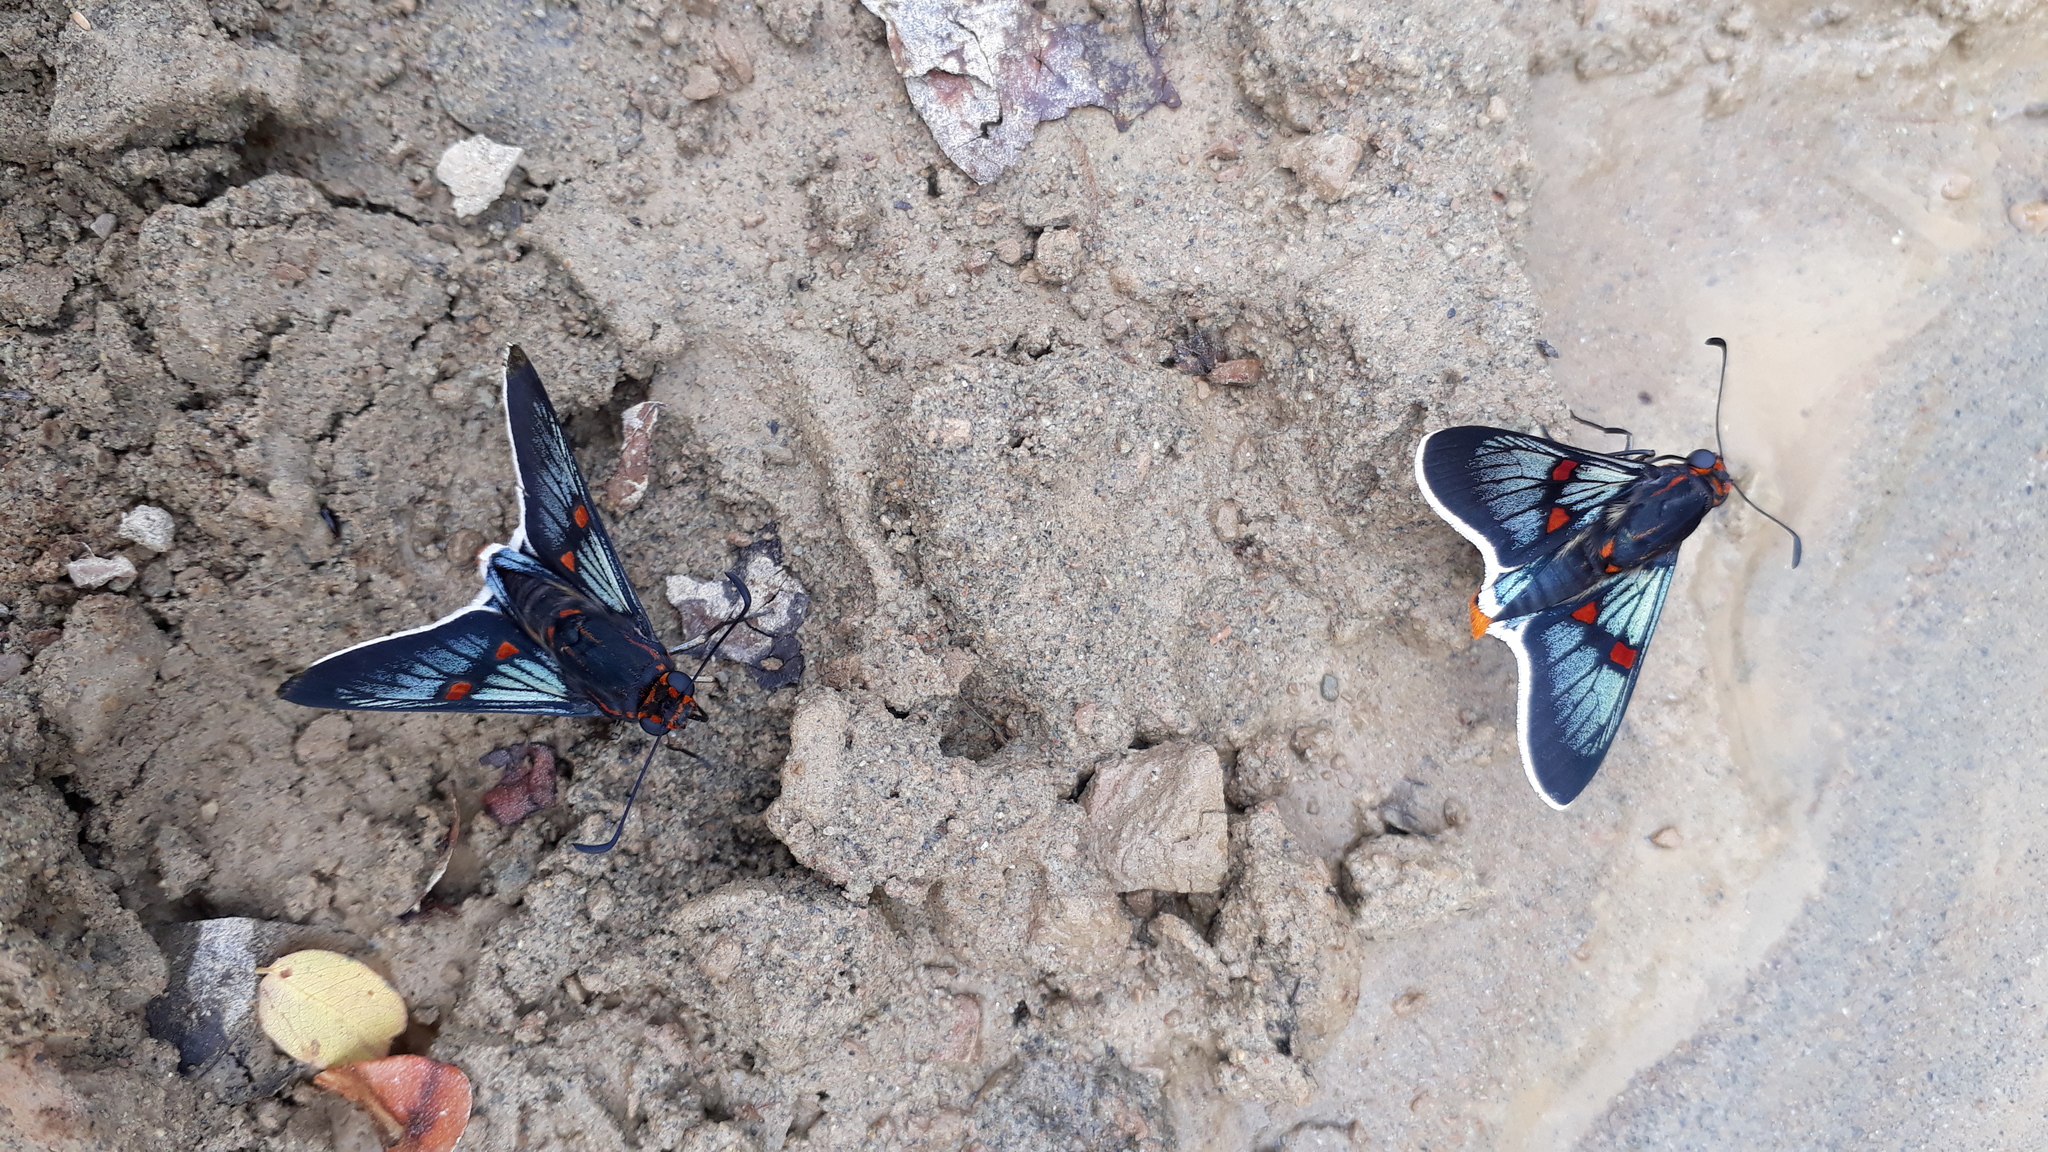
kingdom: Animalia
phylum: Arthropoda
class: Insecta
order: Lepidoptera
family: Hesperiidae
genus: Mimoniades
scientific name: Mimoniades
